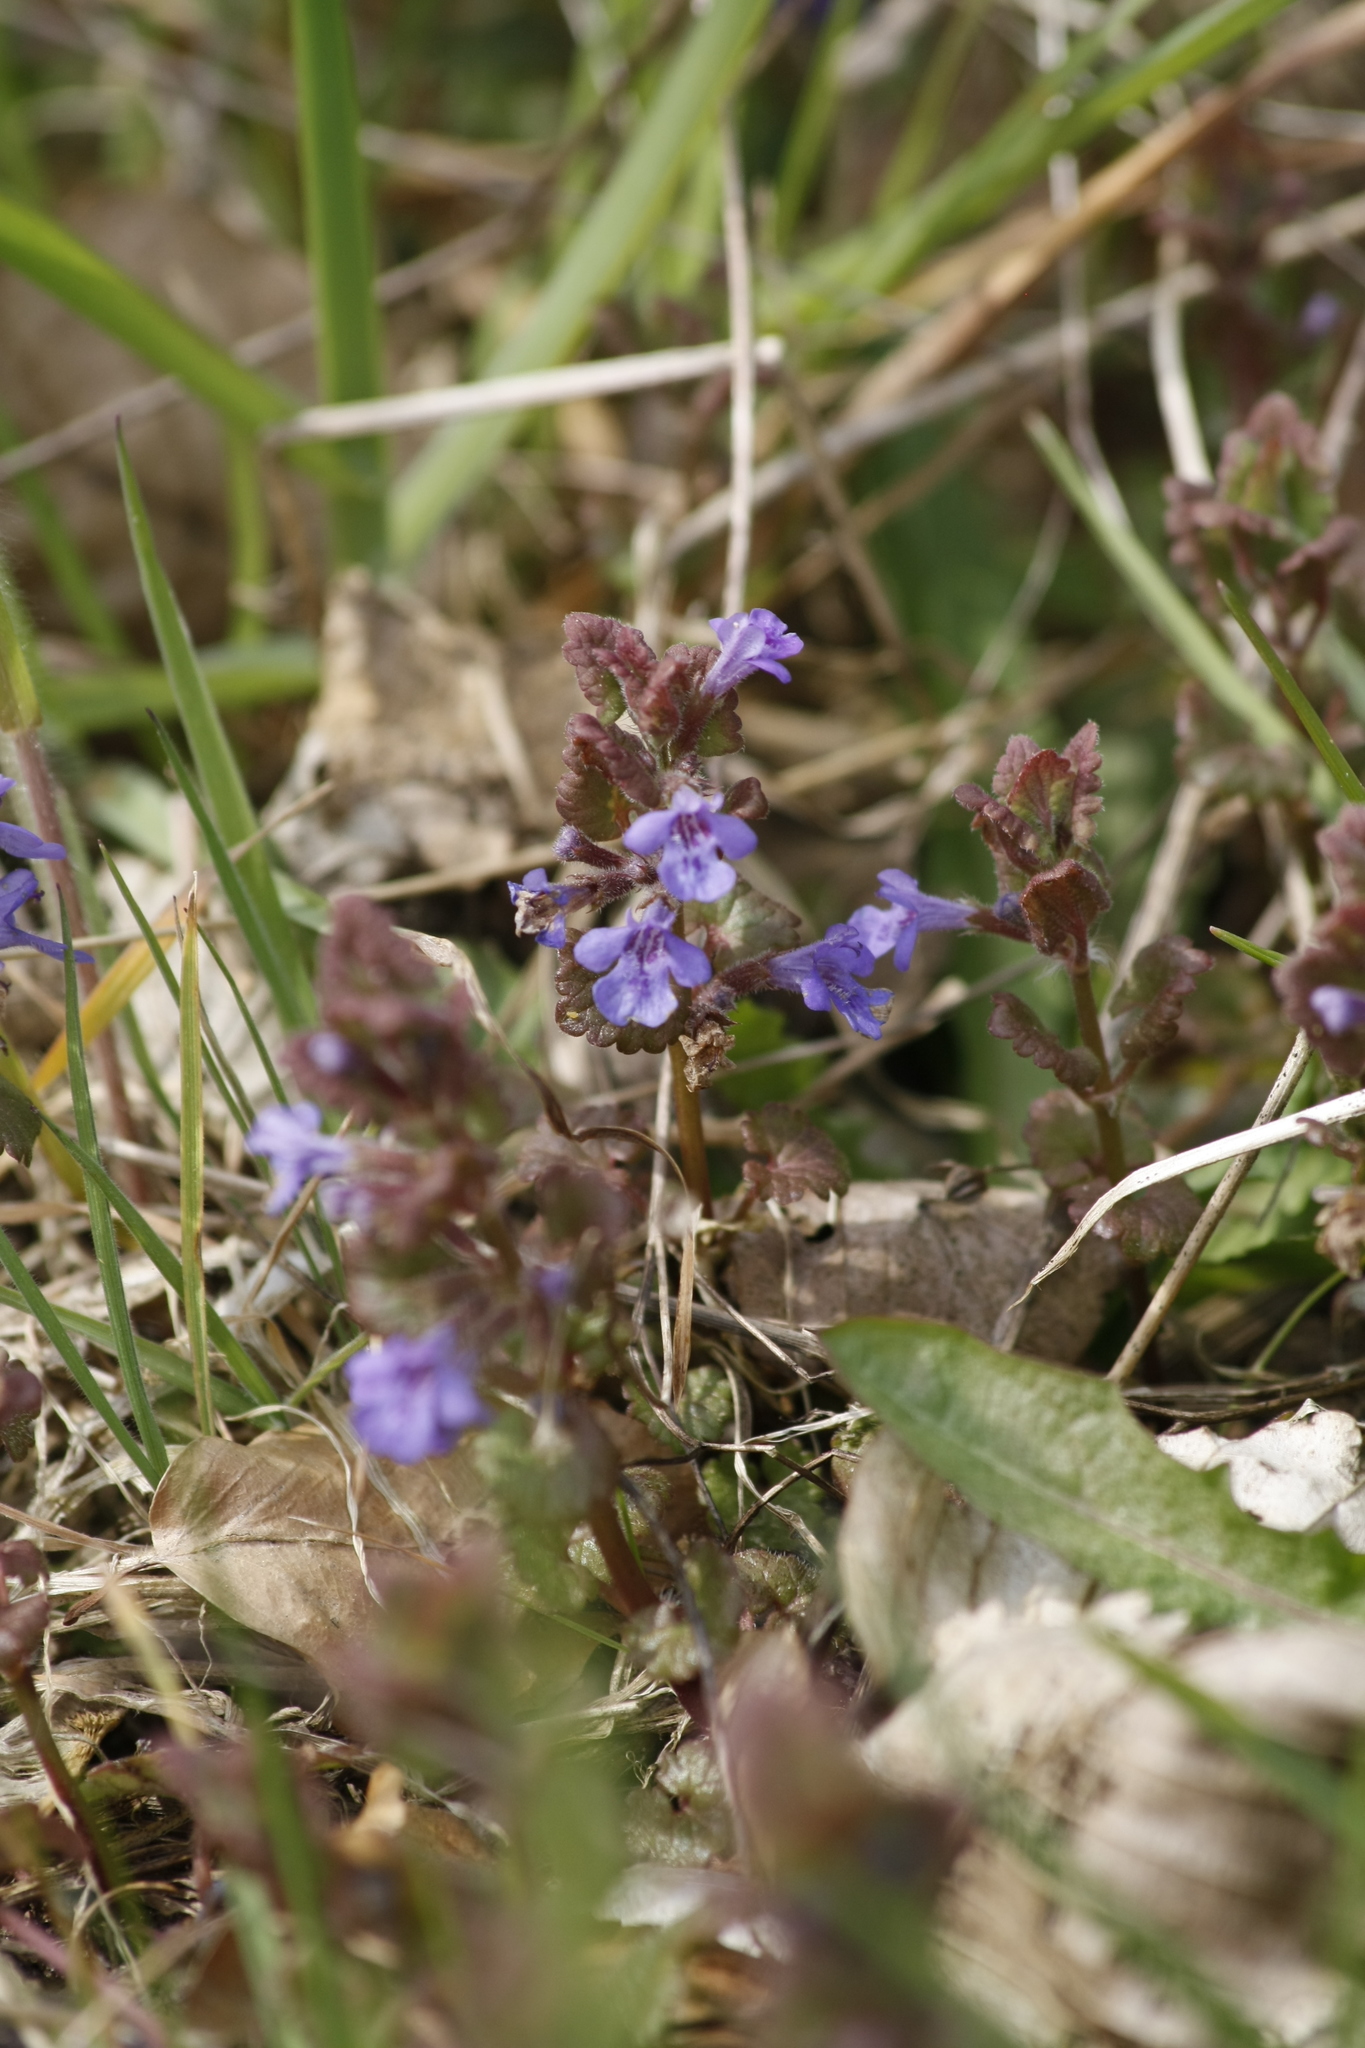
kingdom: Plantae
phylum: Tracheophyta
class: Magnoliopsida
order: Lamiales
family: Lamiaceae
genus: Glechoma
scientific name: Glechoma hederacea
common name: Ground ivy
